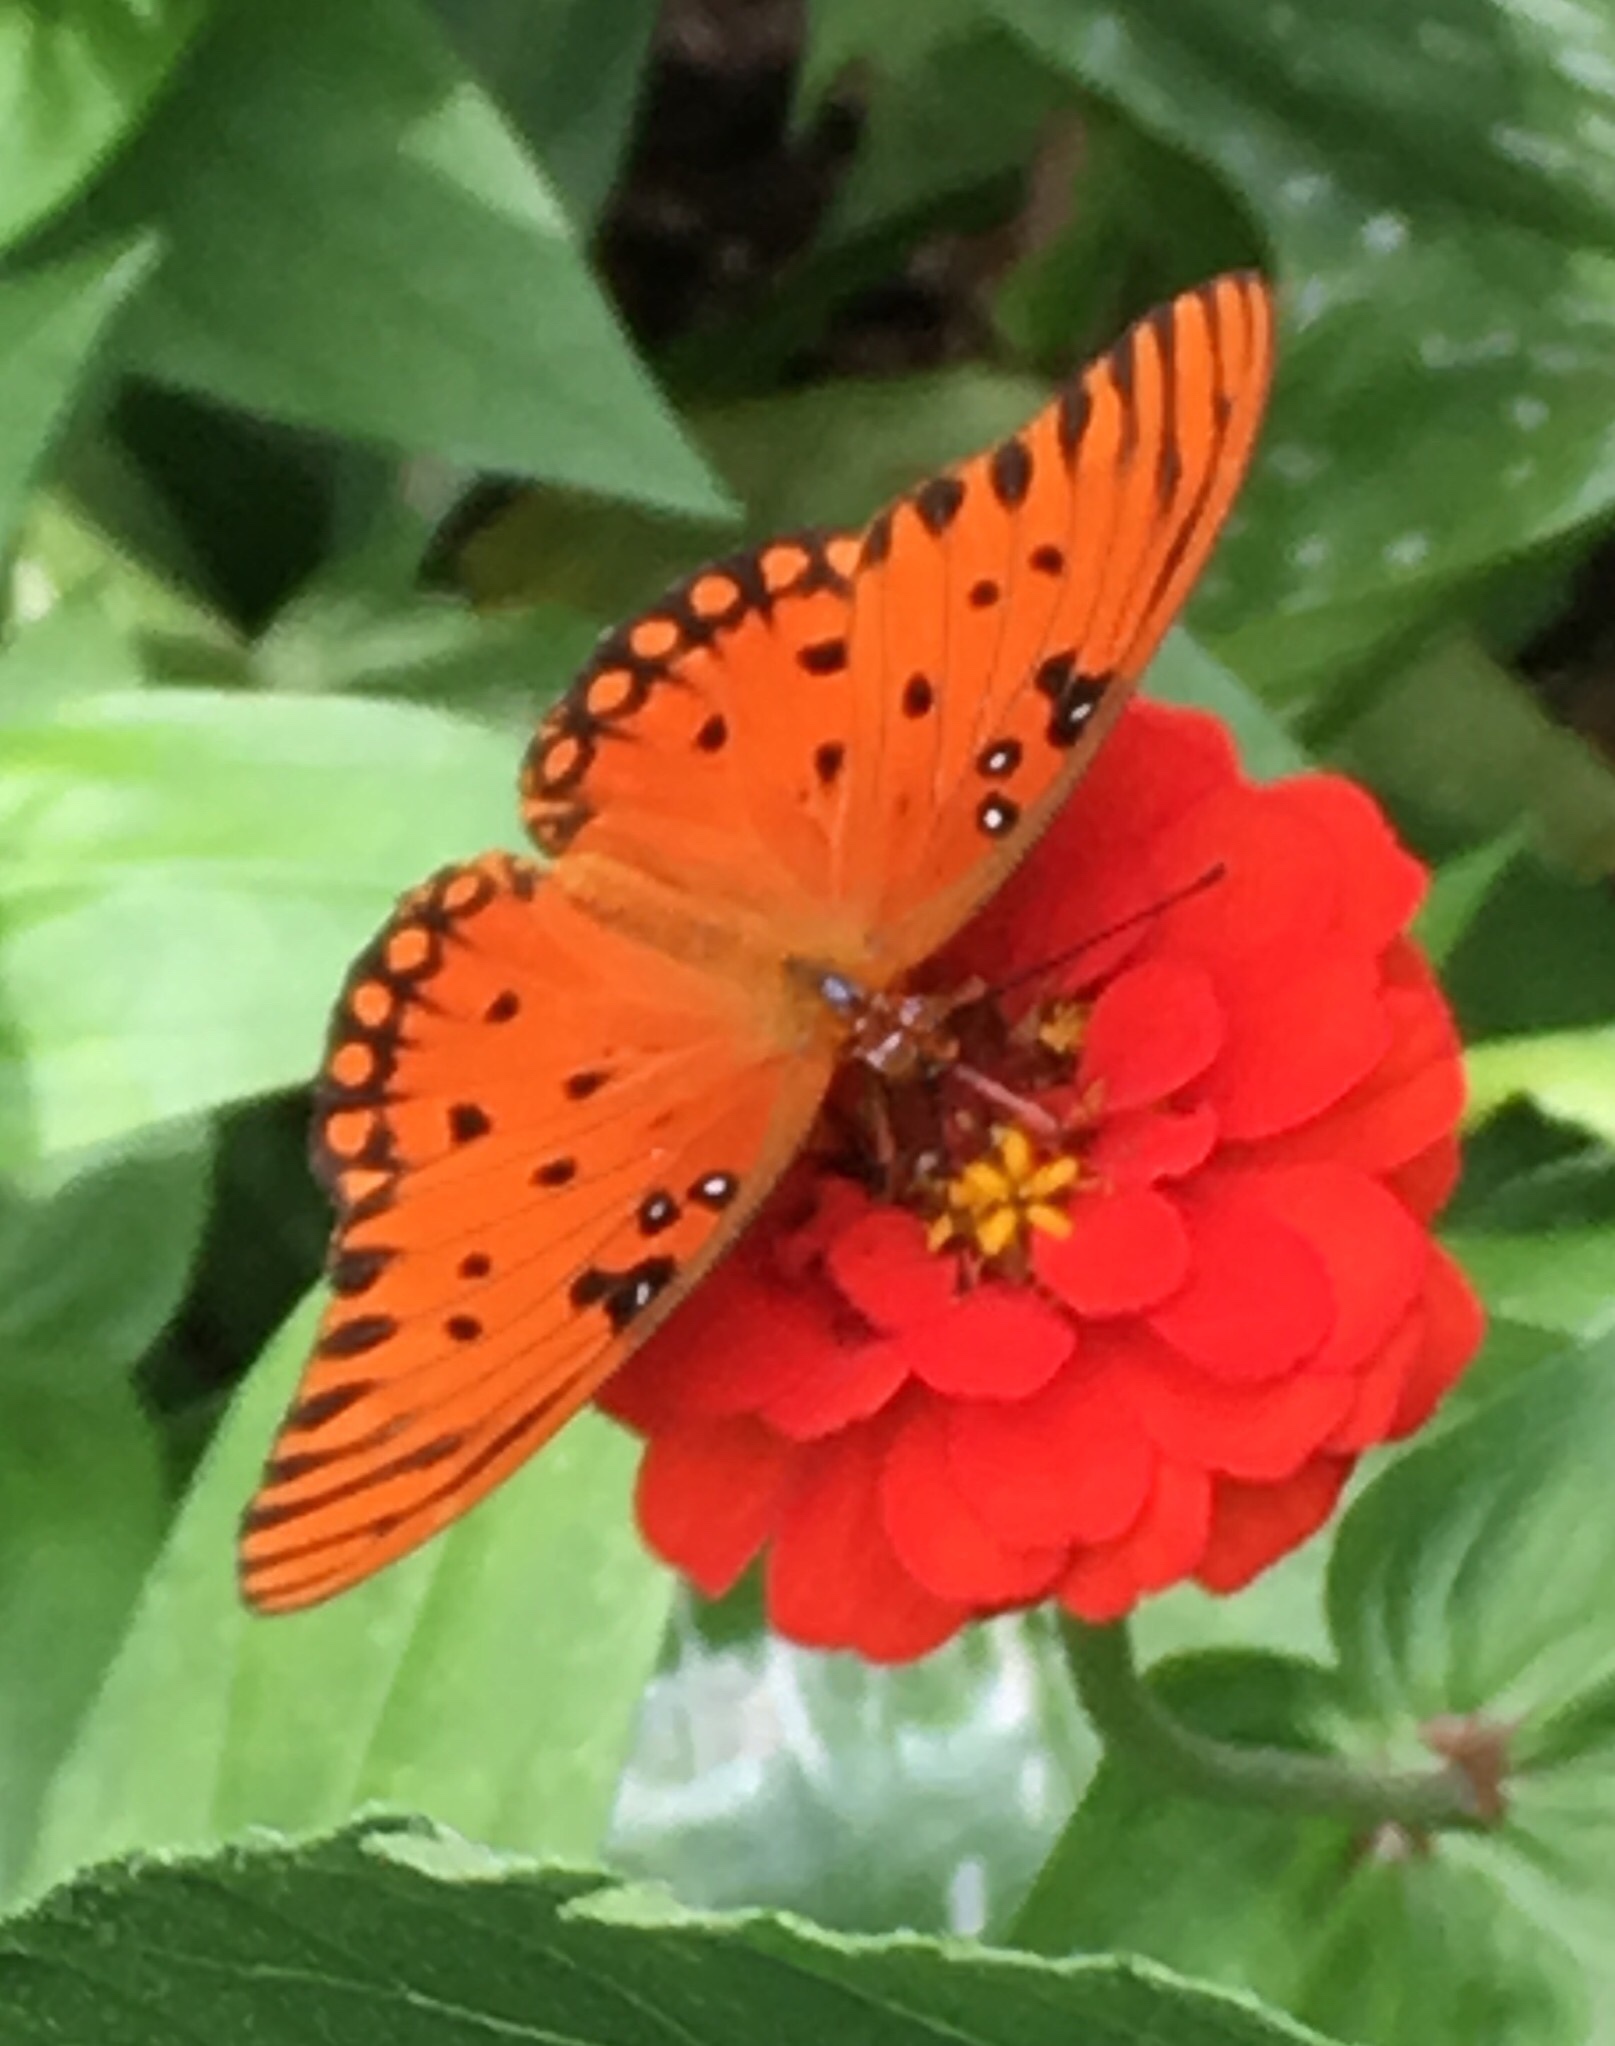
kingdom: Animalia
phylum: Arthropoda
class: Insecta
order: Lepidoptera
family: Nymphalidae
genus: Dione
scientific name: Dione vanillae
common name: Gulf fritillary
